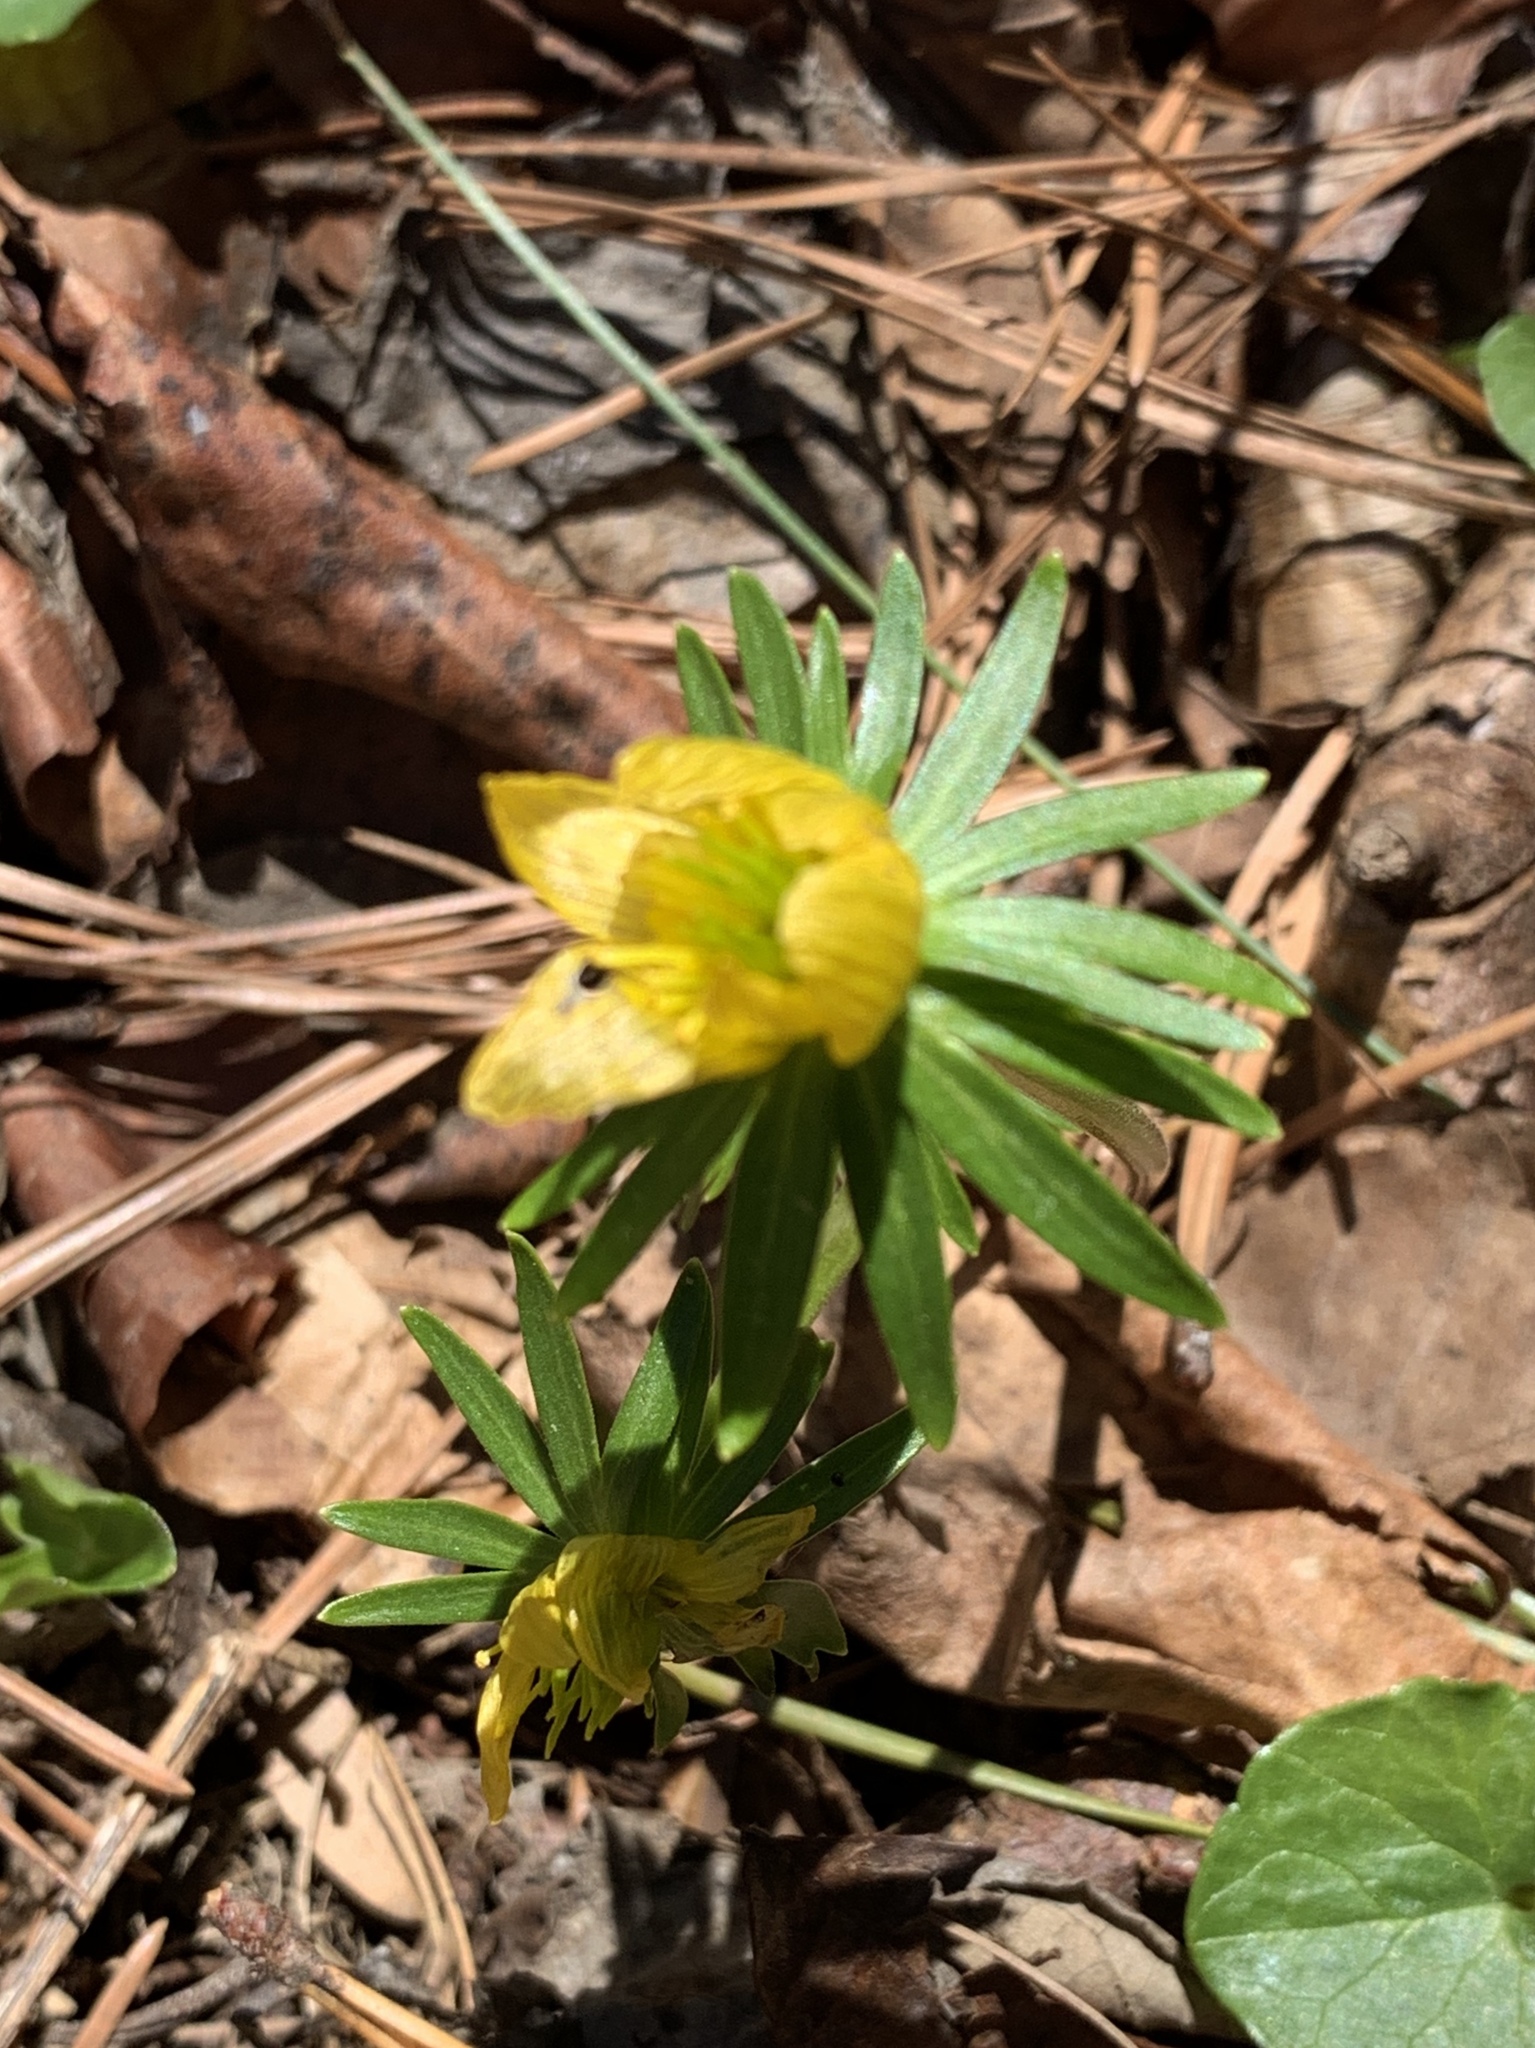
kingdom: Plantae
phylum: Tracheophyta
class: Magnoliopsida
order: Ranunculales
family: Ranunculaceae
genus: Eranthis
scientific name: Eranthis hyemalis
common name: Winter aconite
